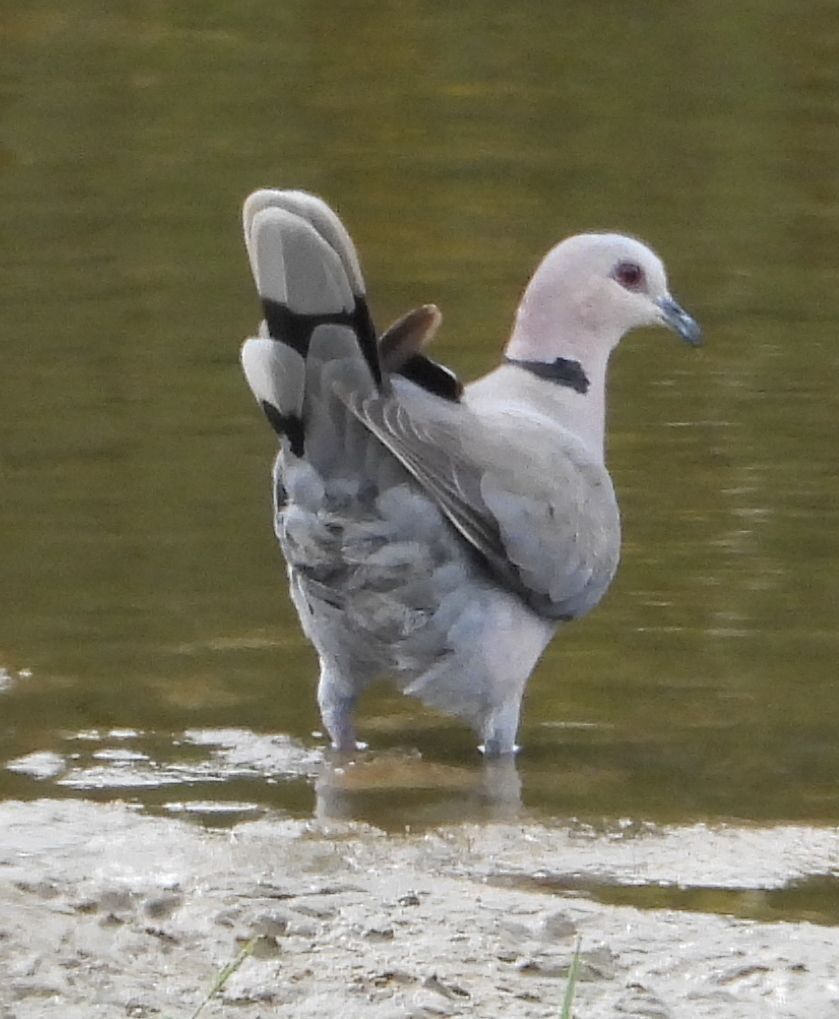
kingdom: Animalia
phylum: Chordata
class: Aves
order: Columbiformes
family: Columbidae
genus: Streptopelia
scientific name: Streptopelia semitorquata
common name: Red-eyed dove
